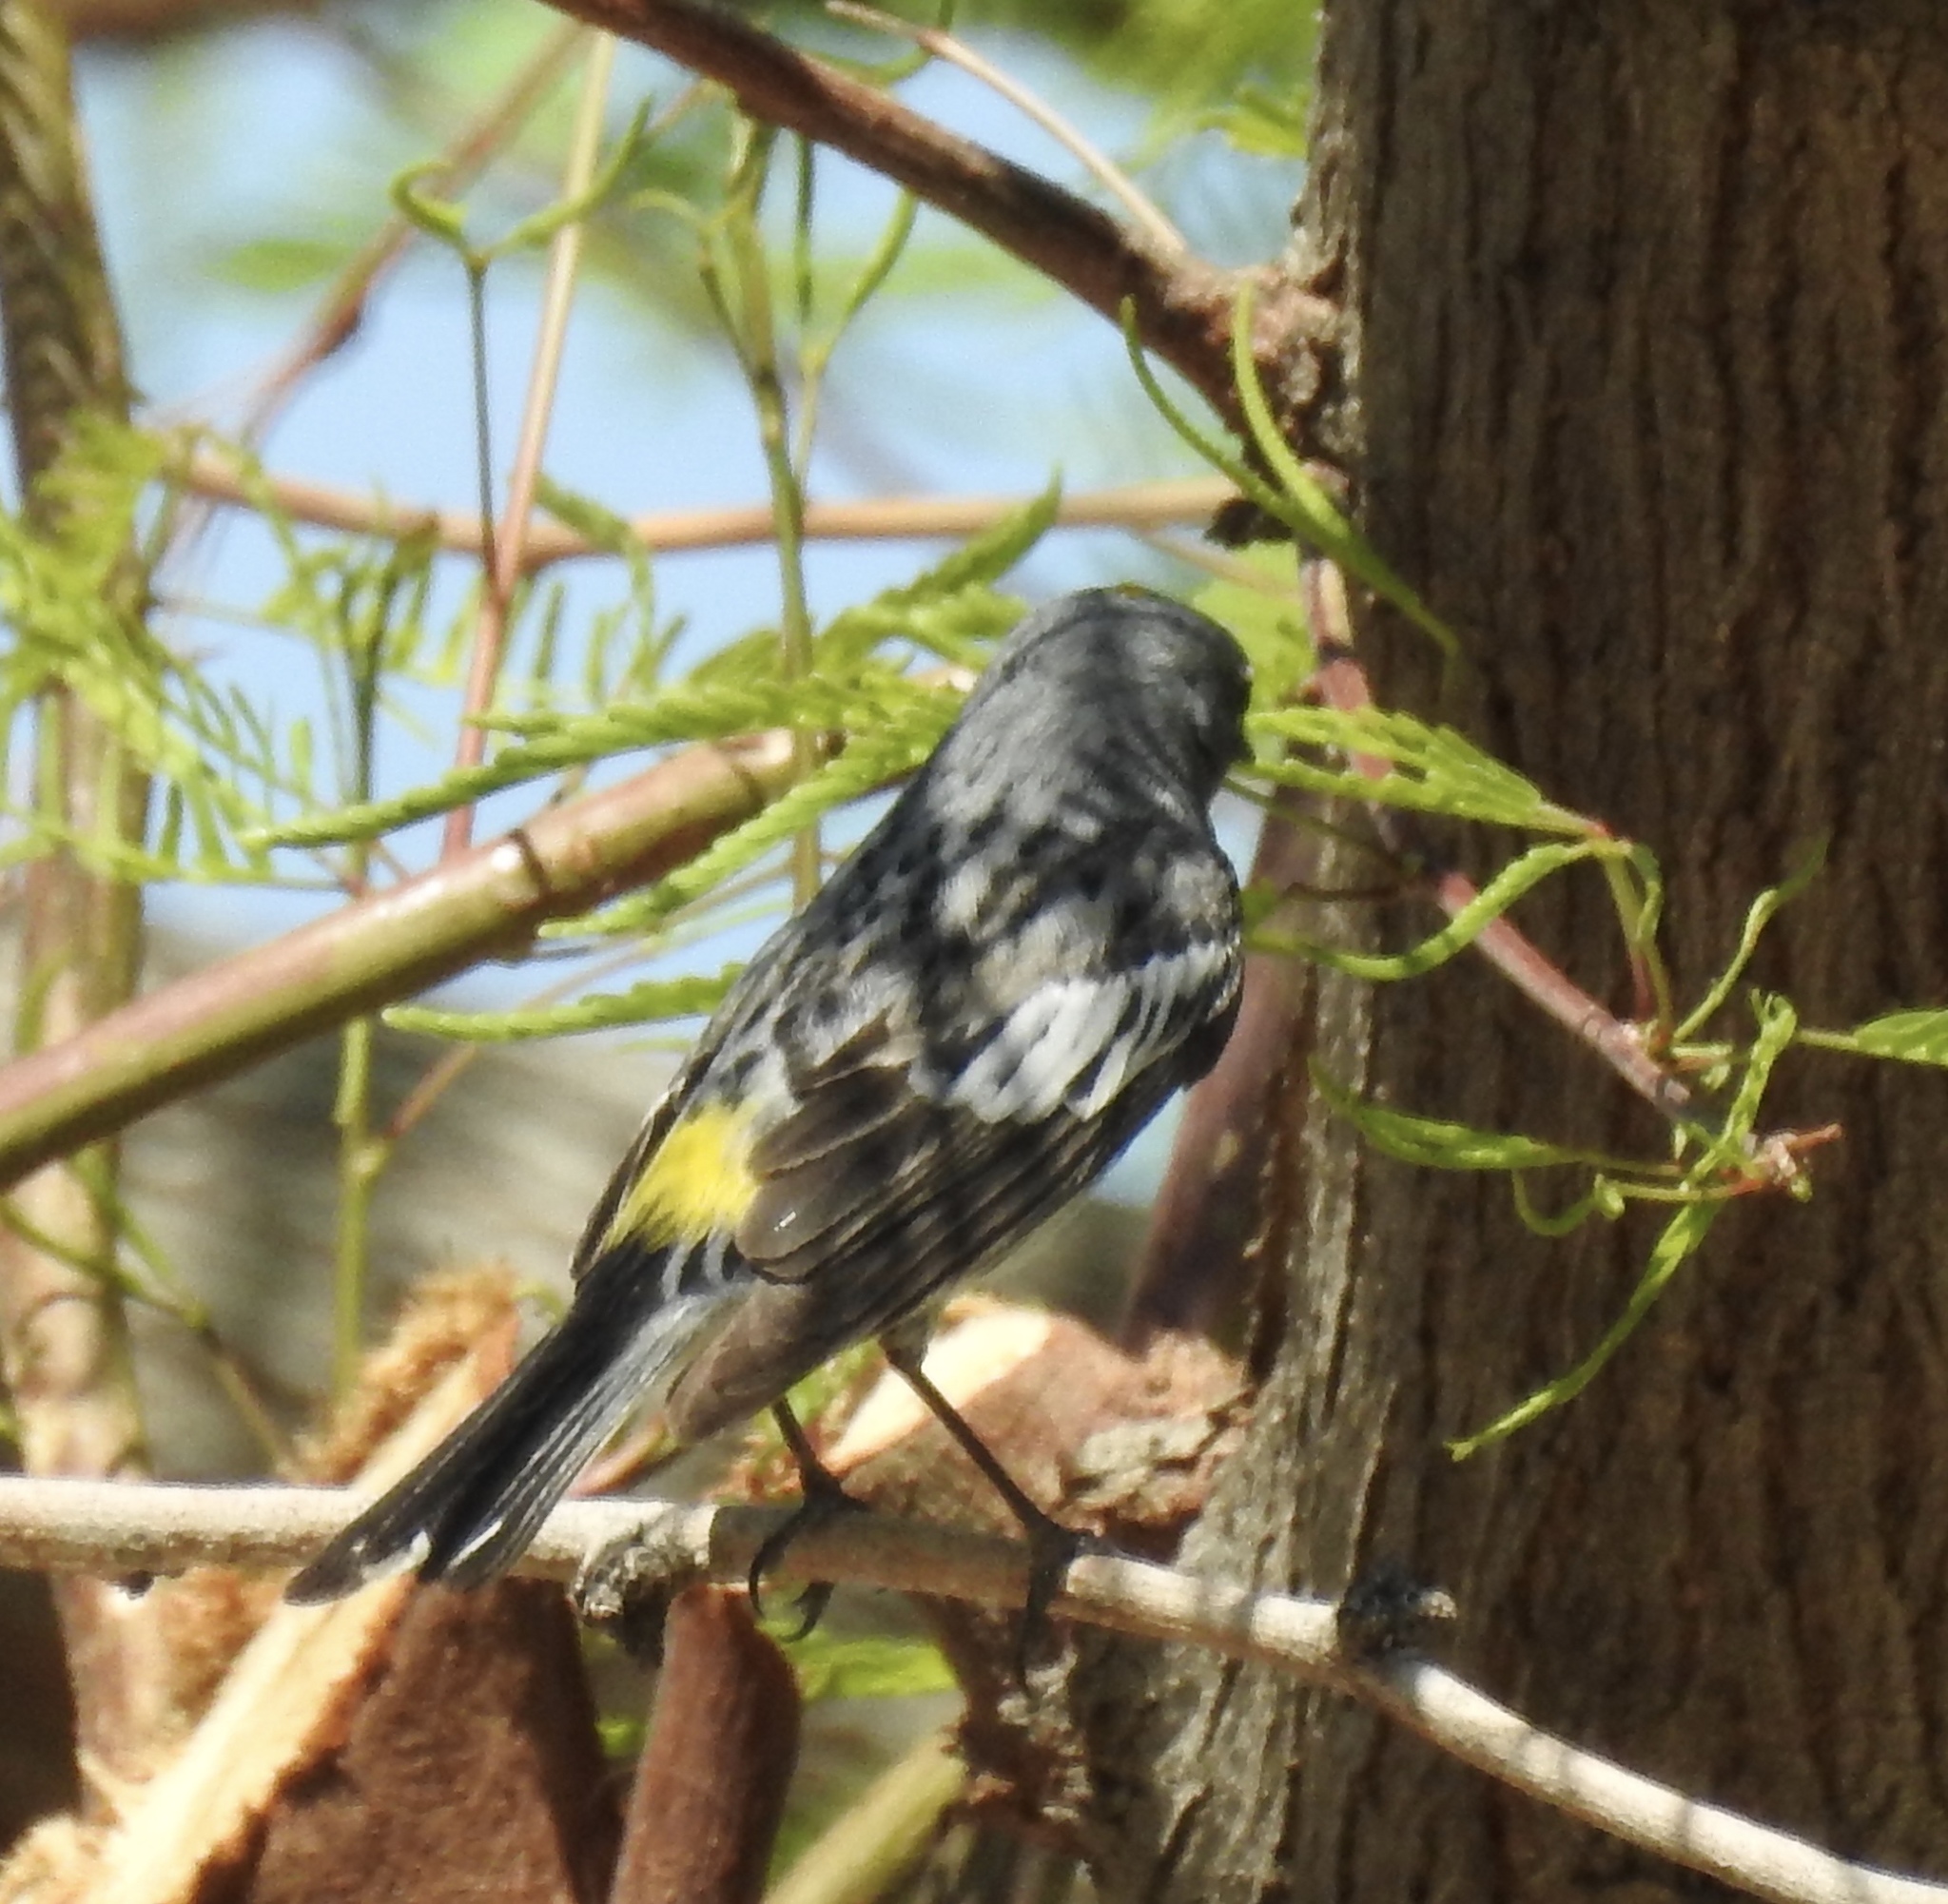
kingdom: Animalia
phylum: Chordata
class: Aves
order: Passeriformes
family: Parulidae
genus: Setophaga
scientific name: Setophaga coronata
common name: Myrtle warbler
